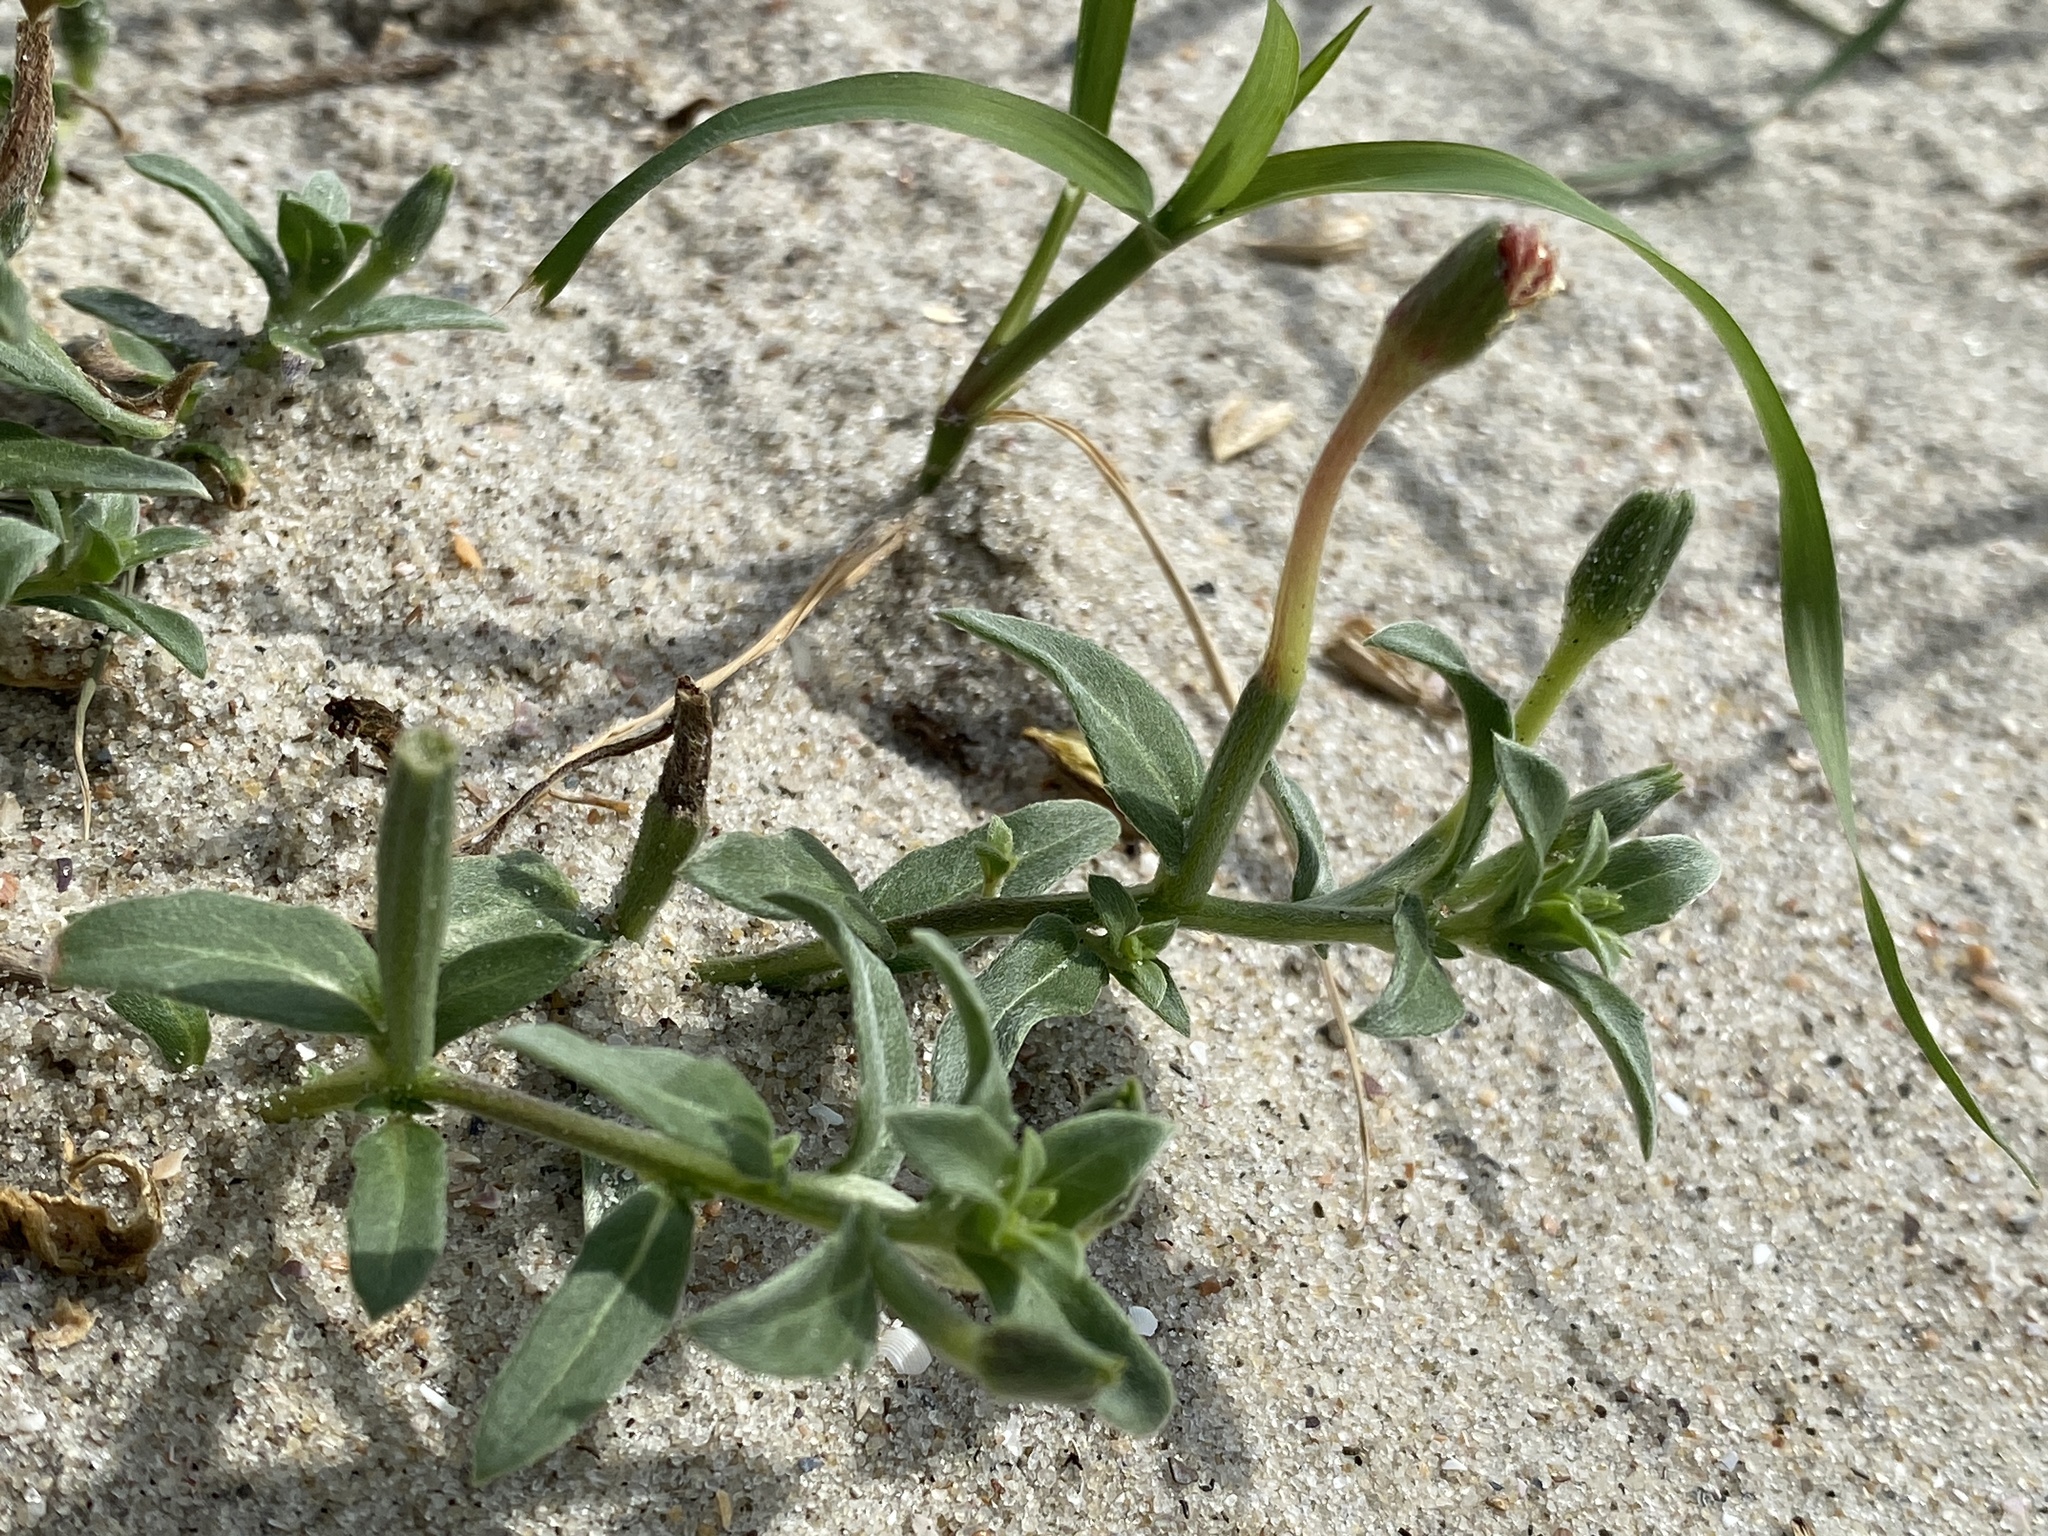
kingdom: Plantae
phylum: Tracheophyta
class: Magnoliopsida
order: Myrtales
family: Onagraceae
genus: Oenothera
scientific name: Oenothera humifusa
